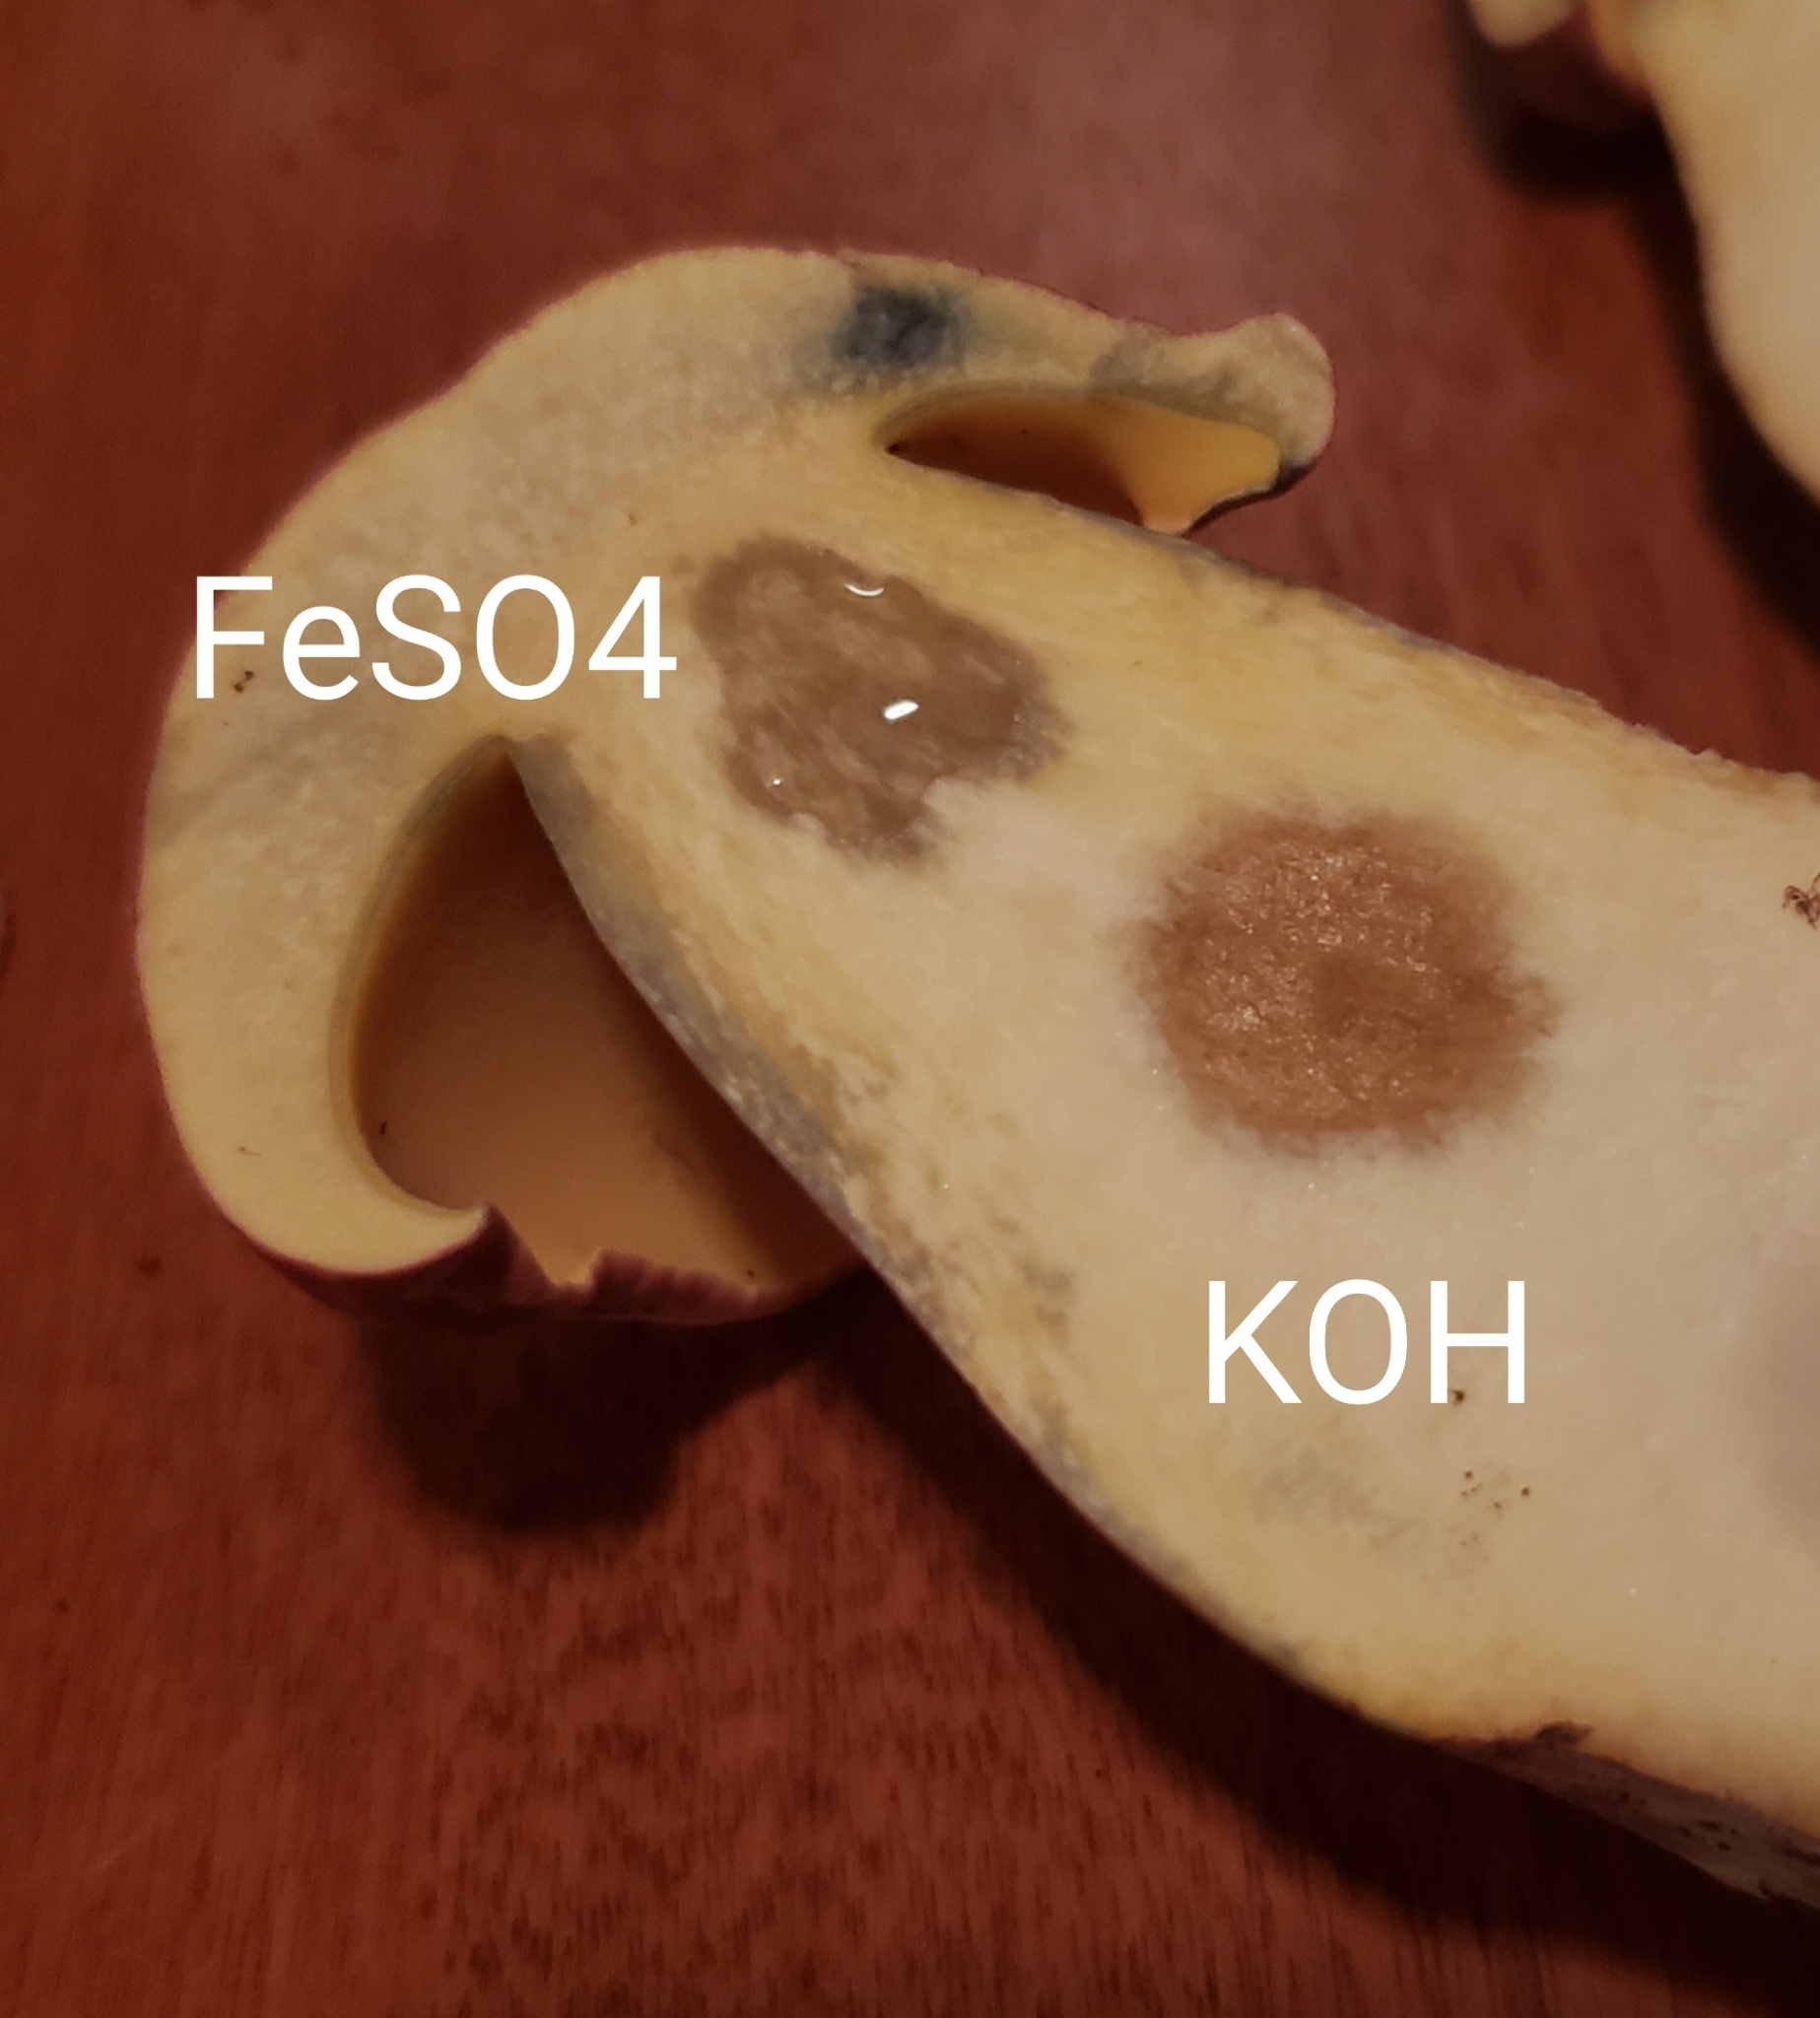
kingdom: Fungi
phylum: Basidiomycota
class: Agaricomycetes
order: Boletales
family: Boletaceae
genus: Lanmaoa
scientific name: Lanmaoa pallidorosea
